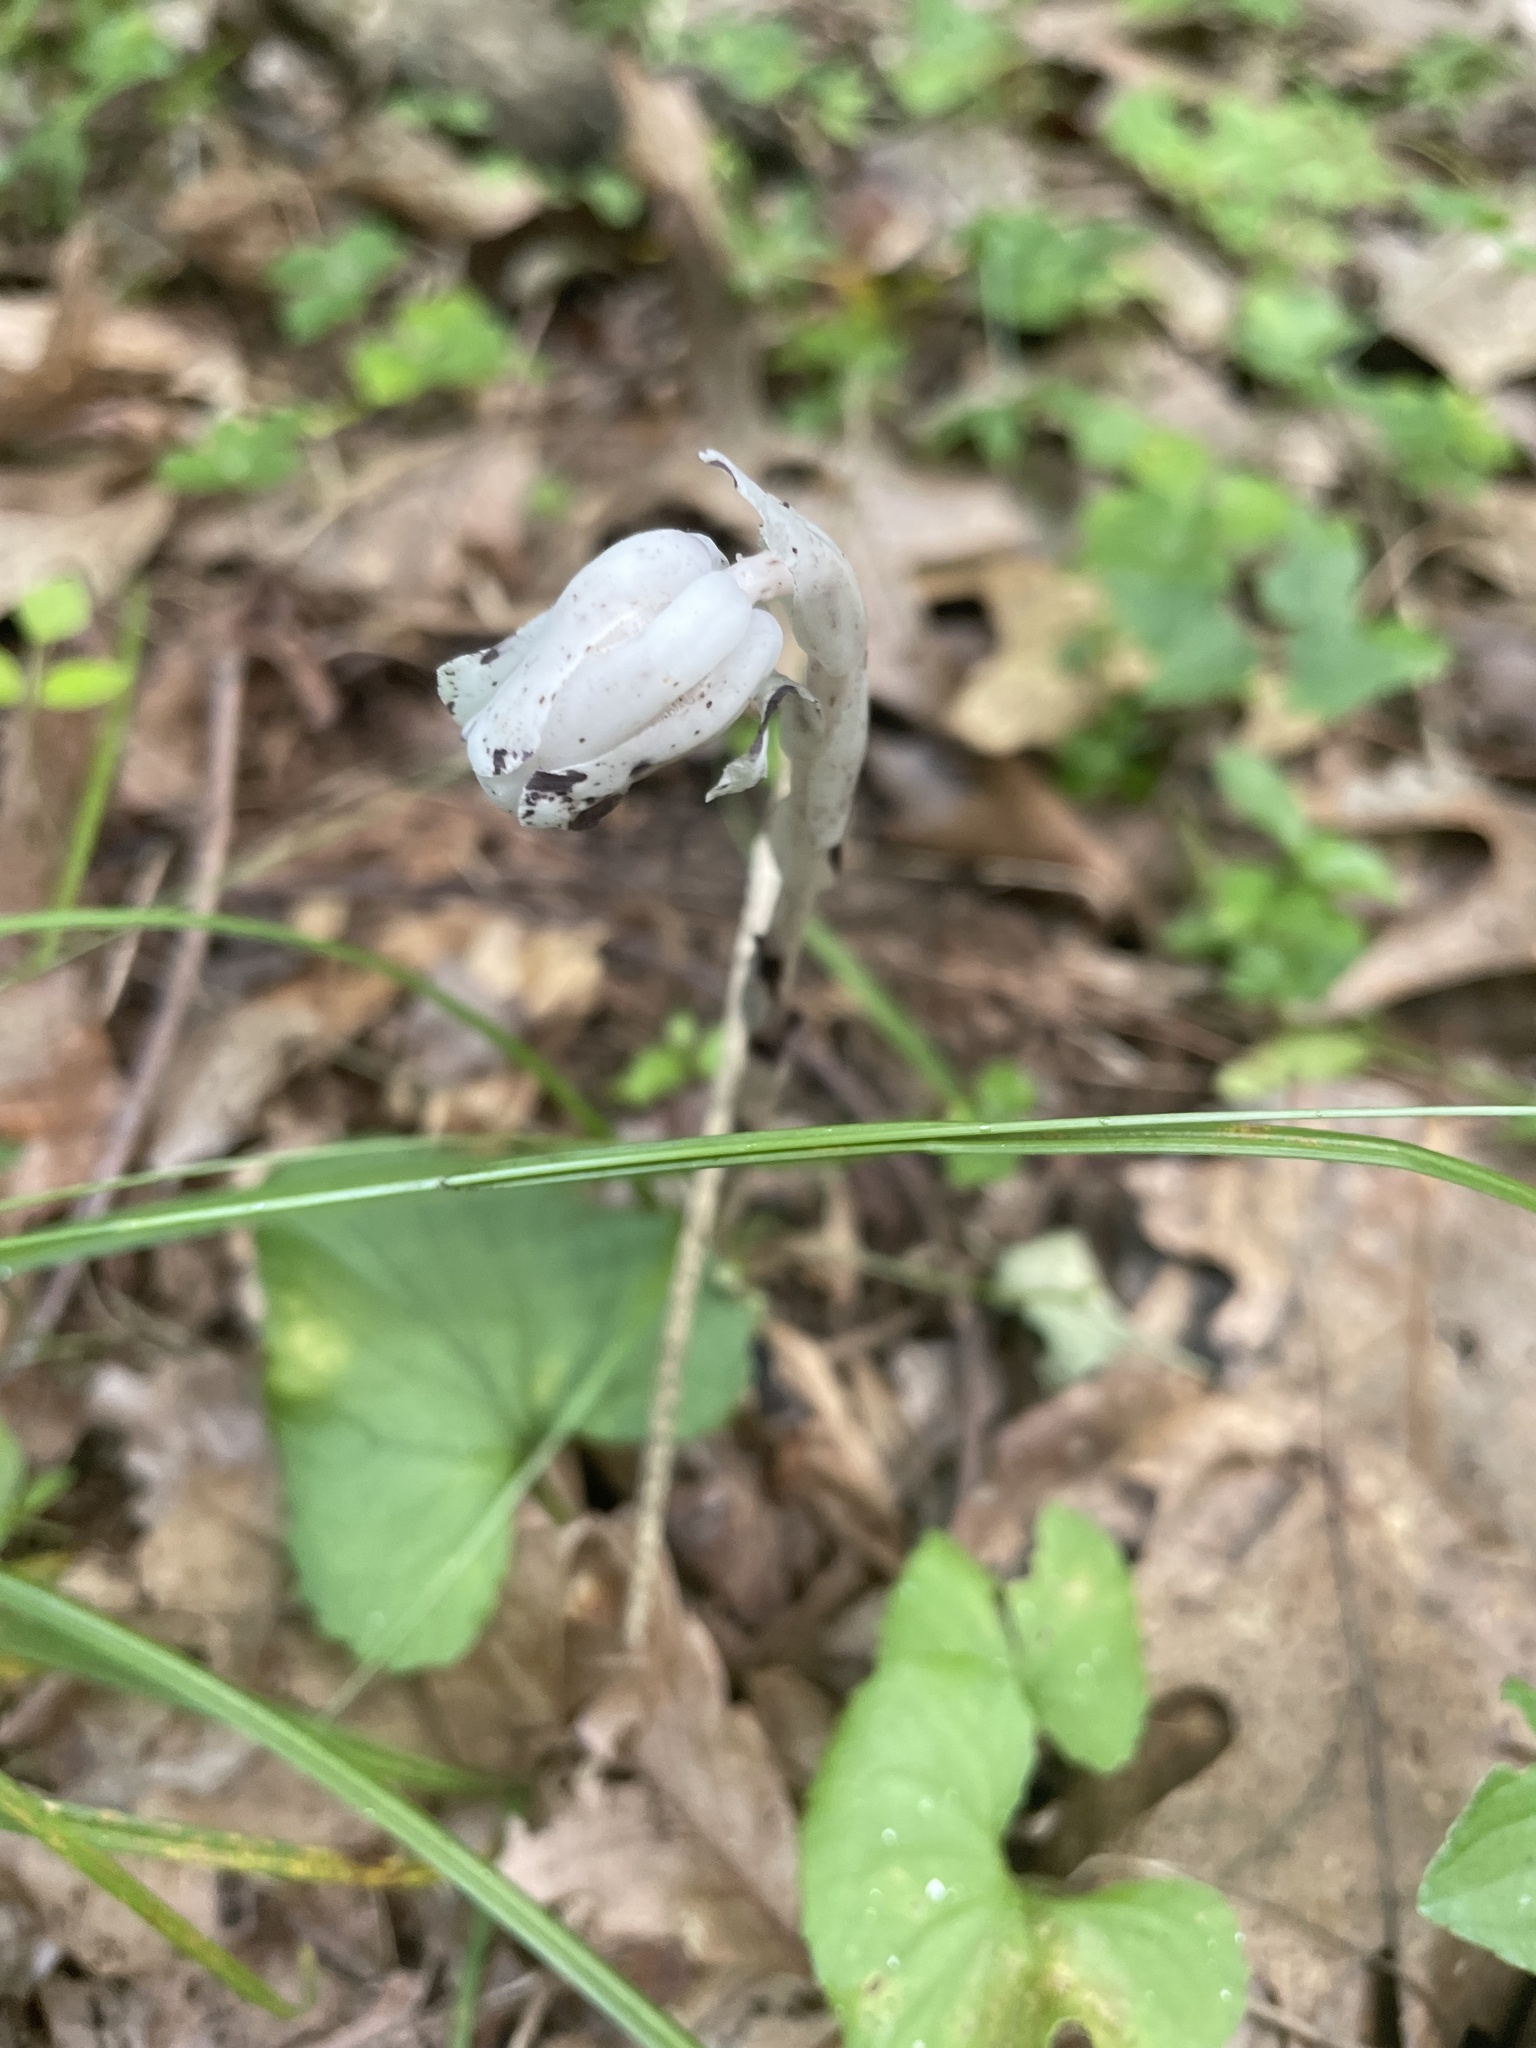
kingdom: Plantae
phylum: Tracheophyta
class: Magnoliopsida
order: Ericales
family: Ericaceae
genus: Monotropa
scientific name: Monotropa uniflora
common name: Convulsion root
